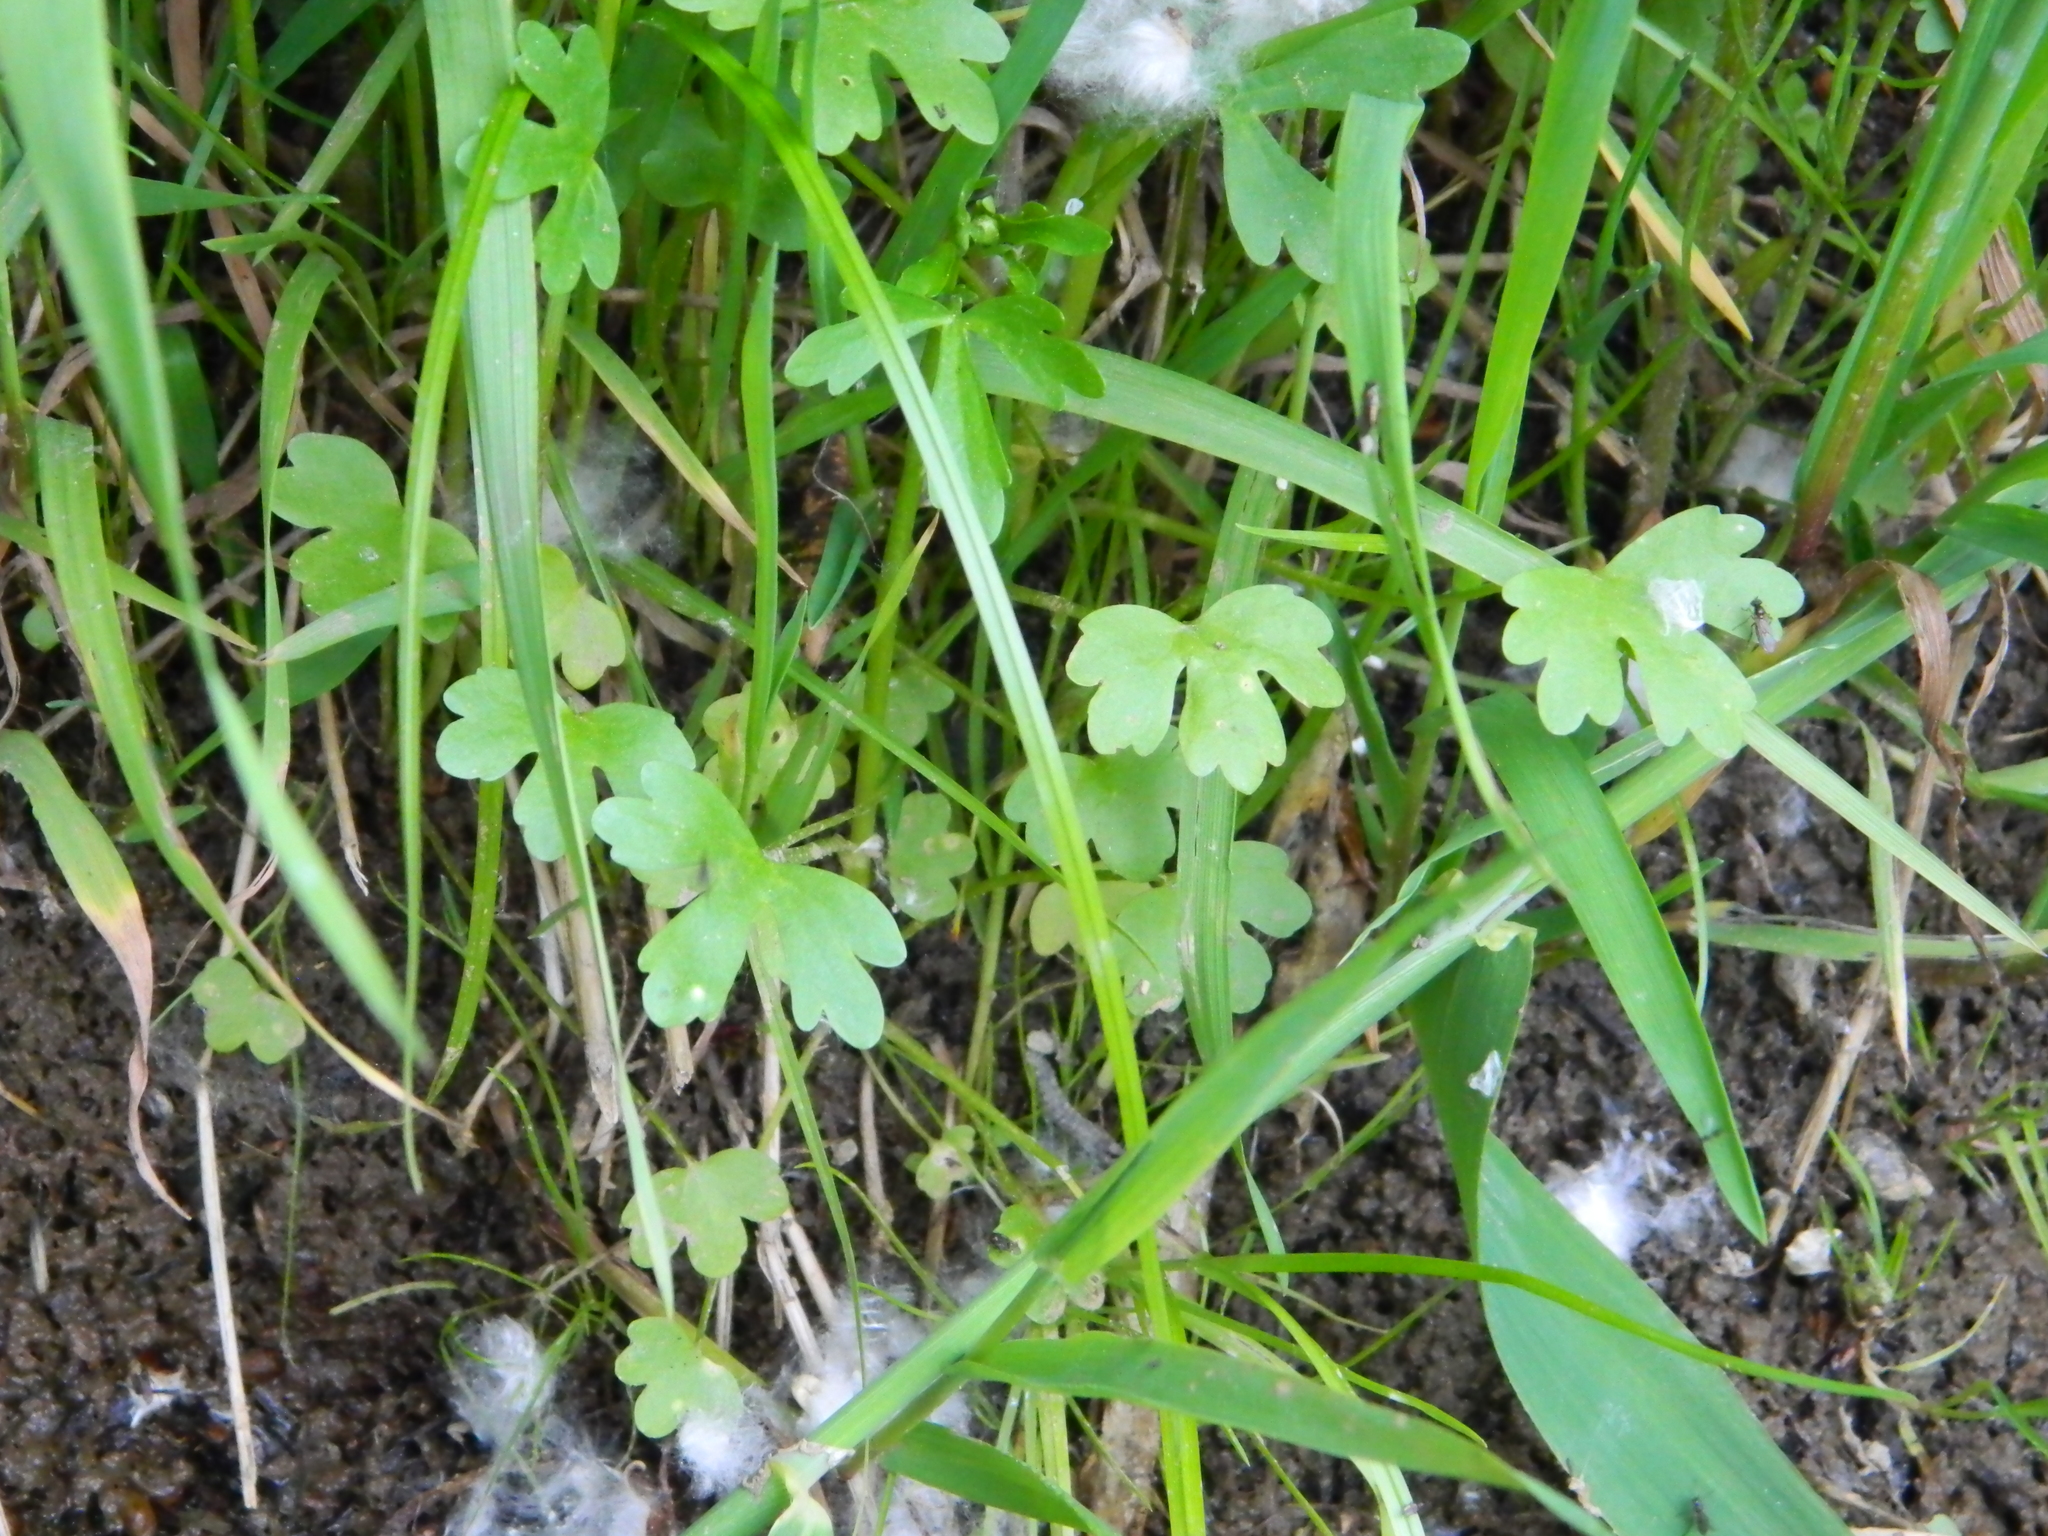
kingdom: Plantae
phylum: Tracheophyta
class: Magnoliopsida
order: Ranunculales
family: Ranunculaceae
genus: Ranunculus
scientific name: Ranunculus sceleratus
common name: Celery-leaved buttercup
